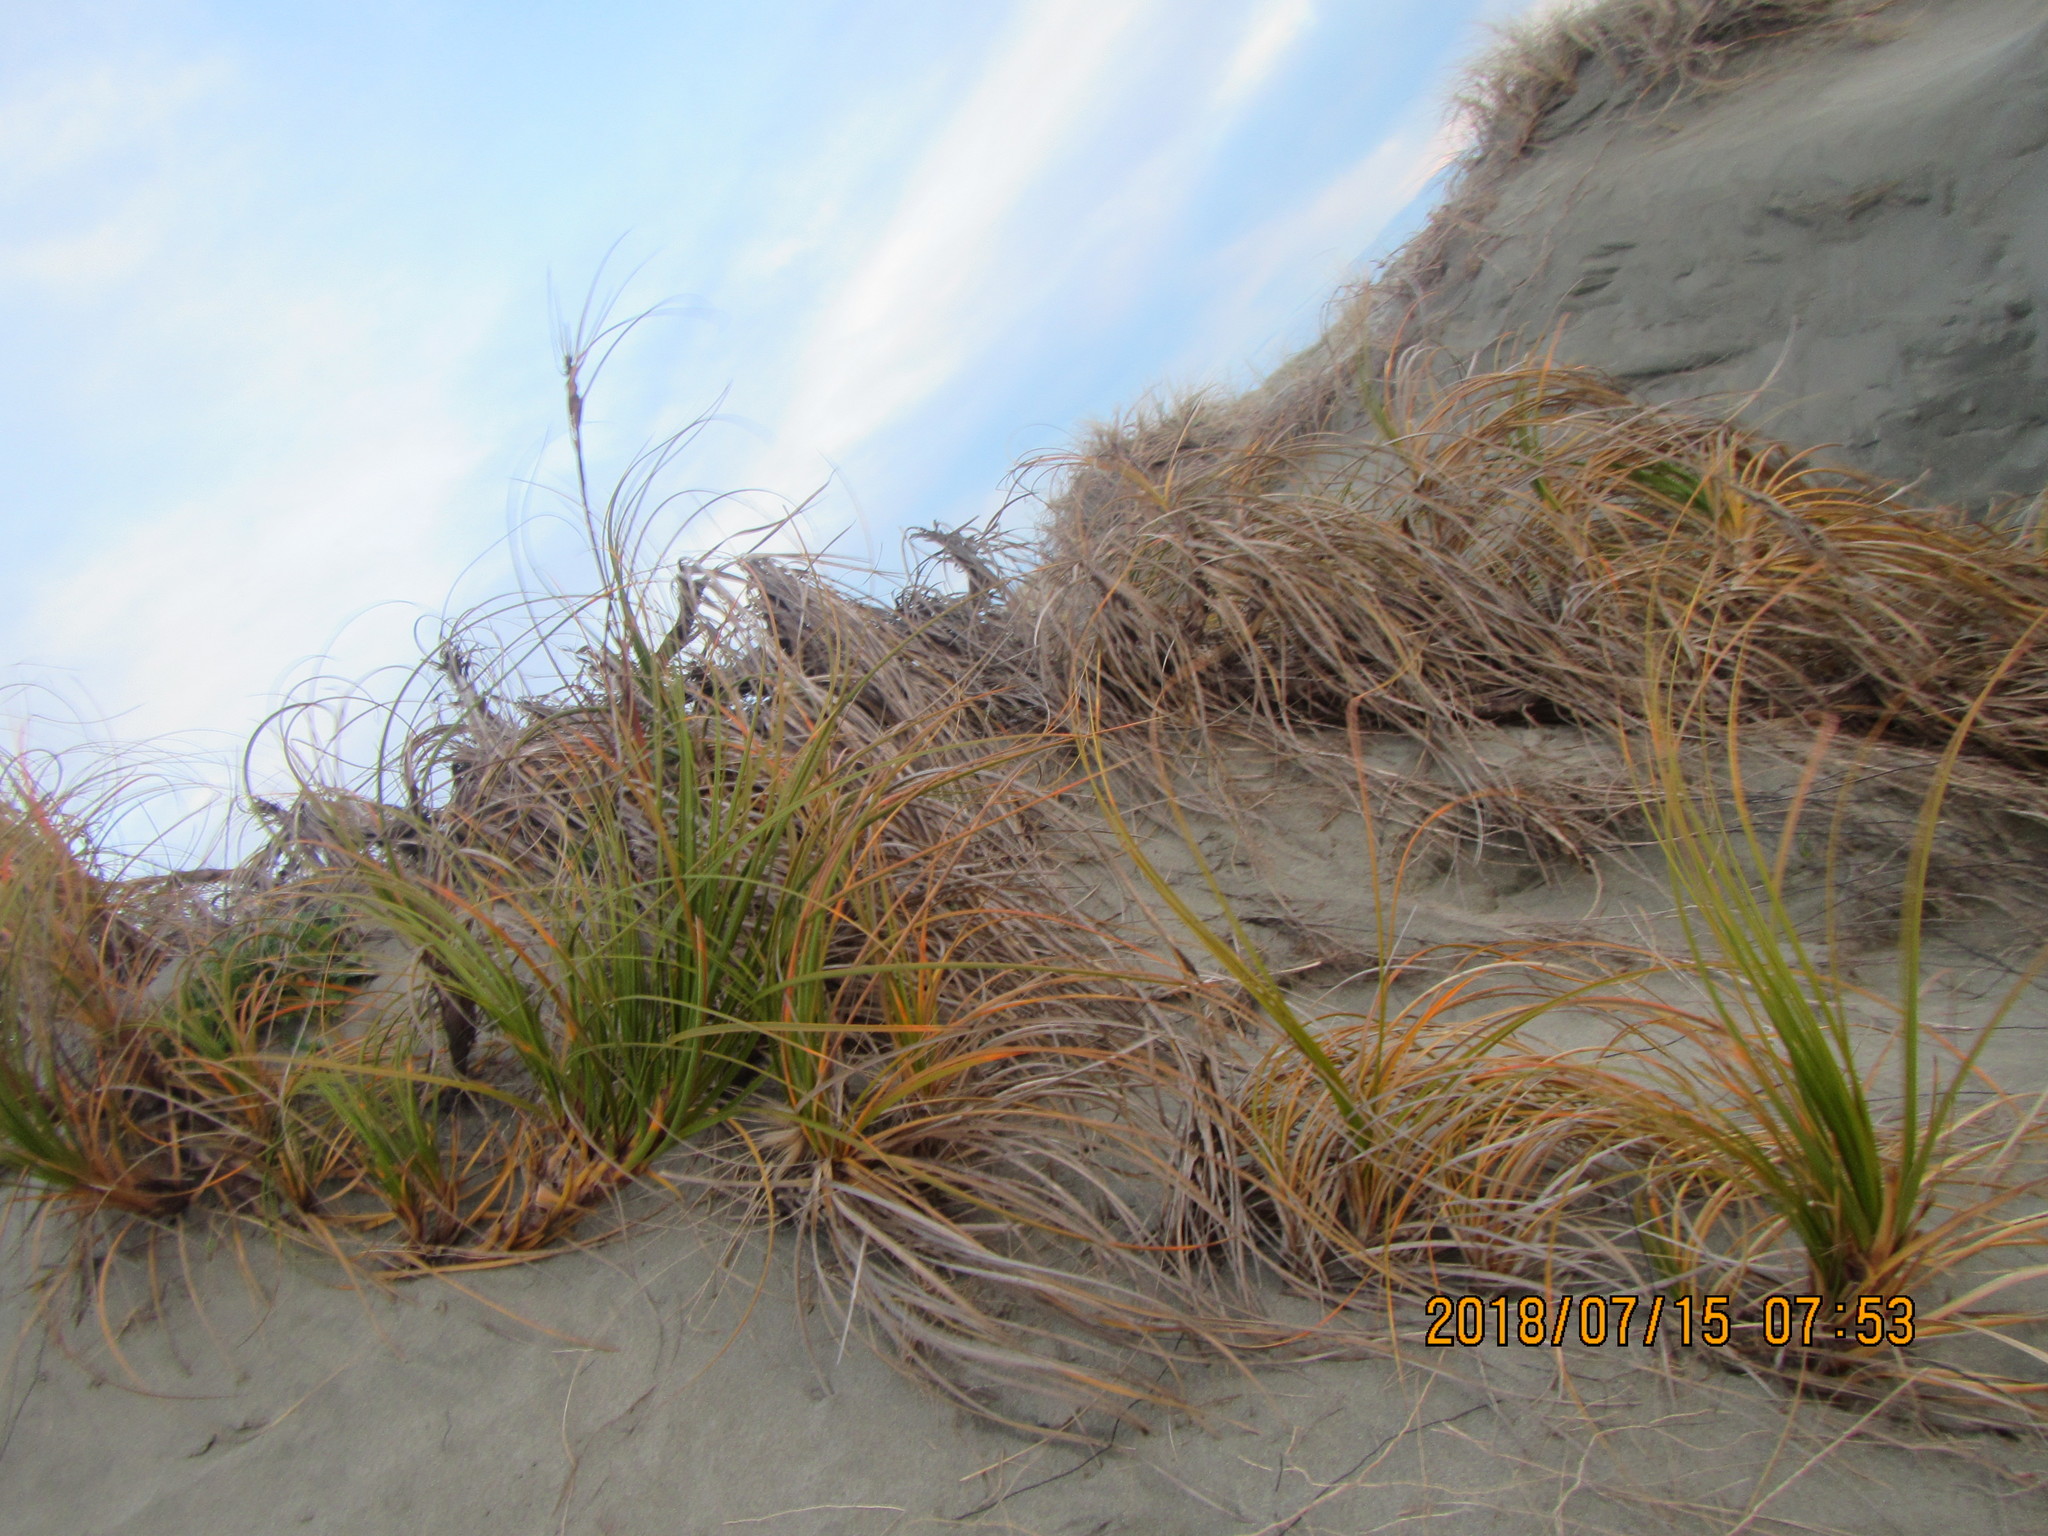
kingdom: Plantae
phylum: Tracheophyta
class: Liliopsida
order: Poales
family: Cyperaceae
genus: Ficinia
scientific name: Ficinia spiralis
